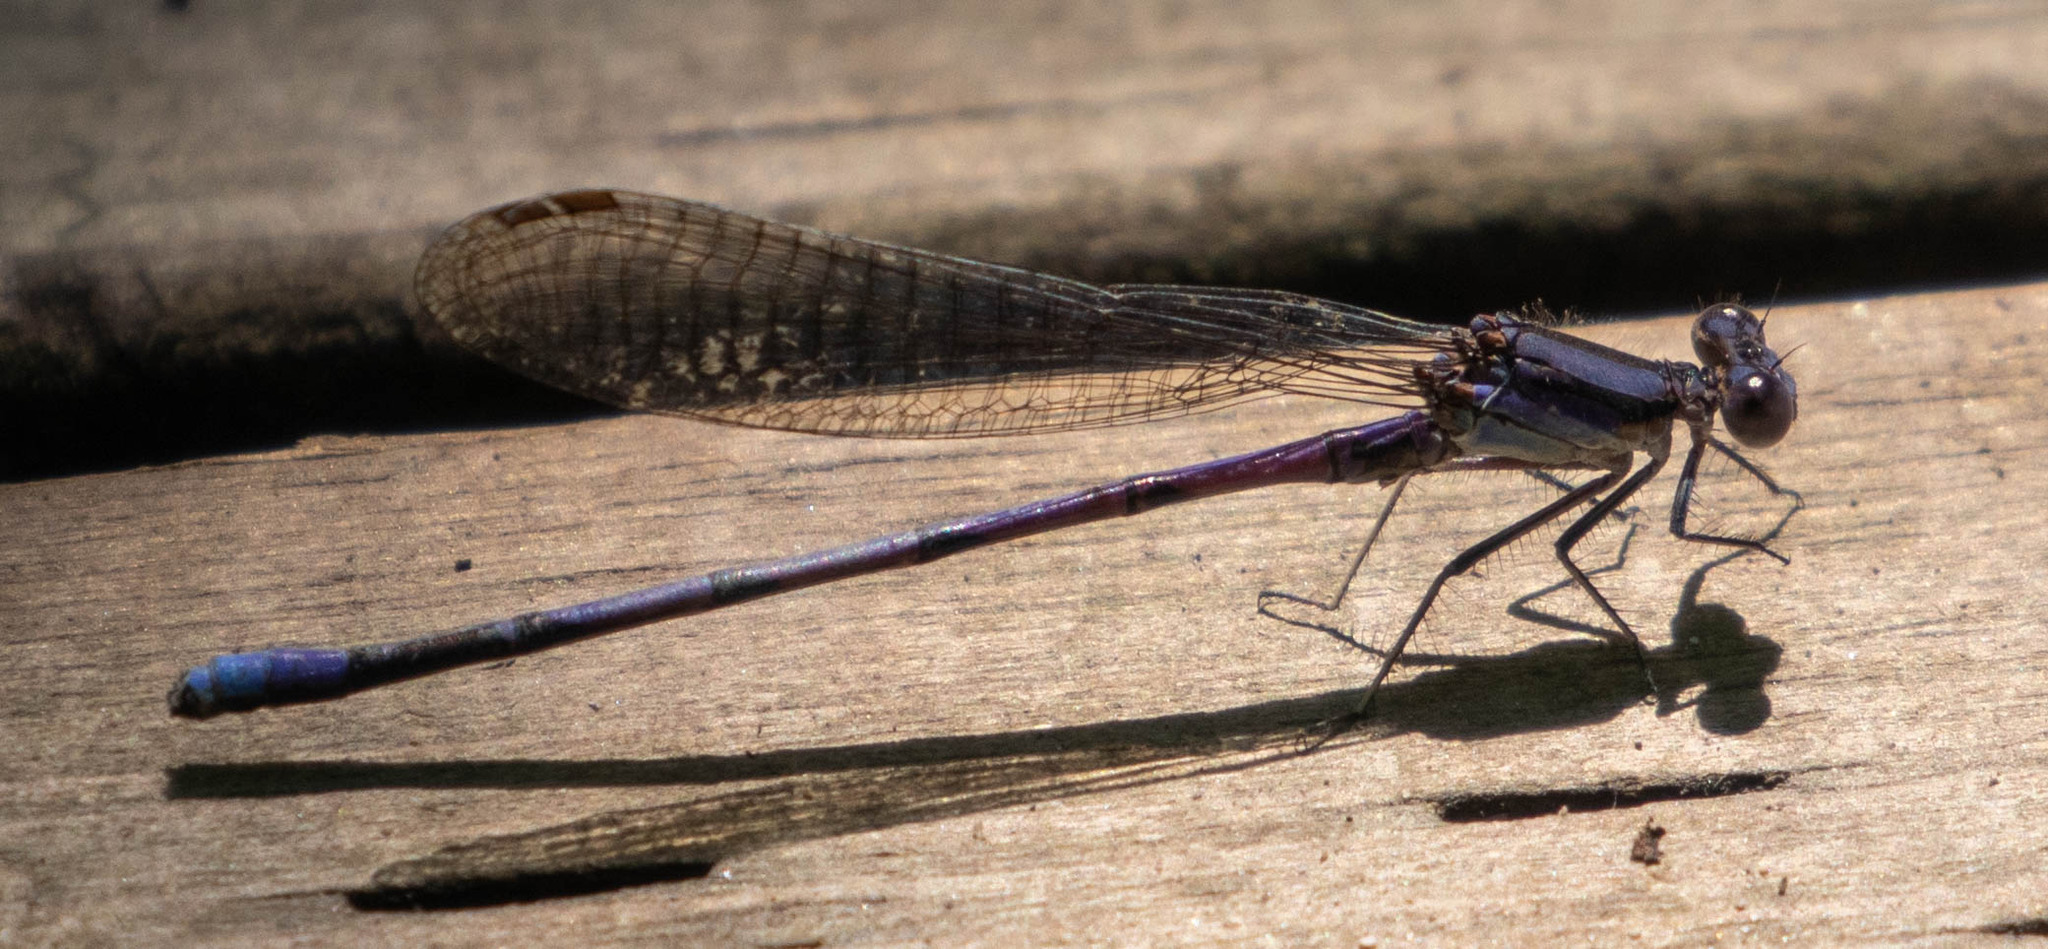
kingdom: Animalia
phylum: Arthropoda
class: Insecta
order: Odonata
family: Coenagrionidae
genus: Argia
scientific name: Argia fumipennis
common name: Variable dancer
